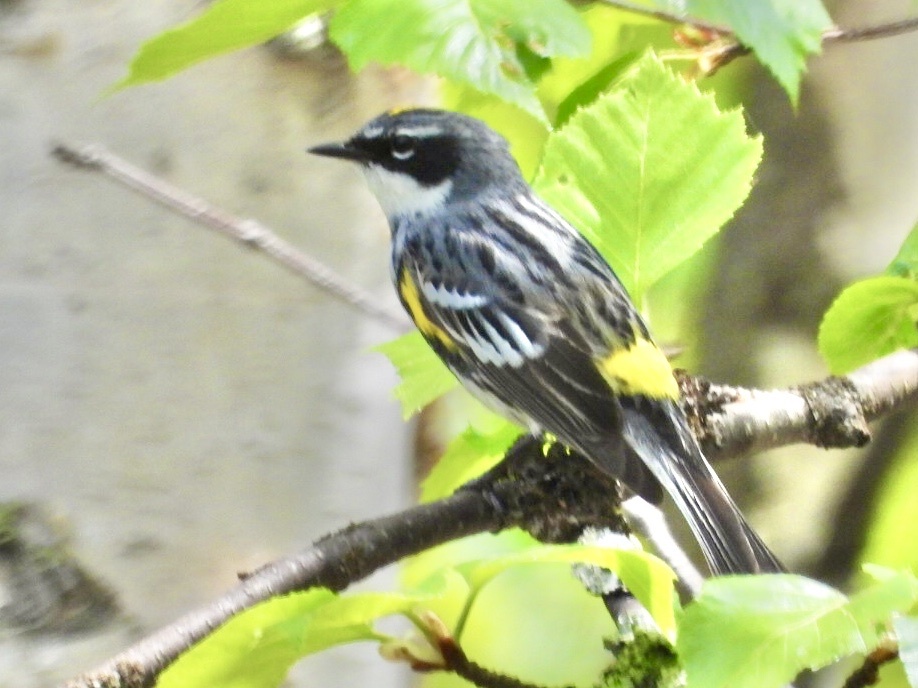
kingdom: Animalia
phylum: Chordata
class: Aves
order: Passeriformes
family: Parulidae
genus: Setophaga
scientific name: Setophaga coronata
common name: Myrtle warbler
